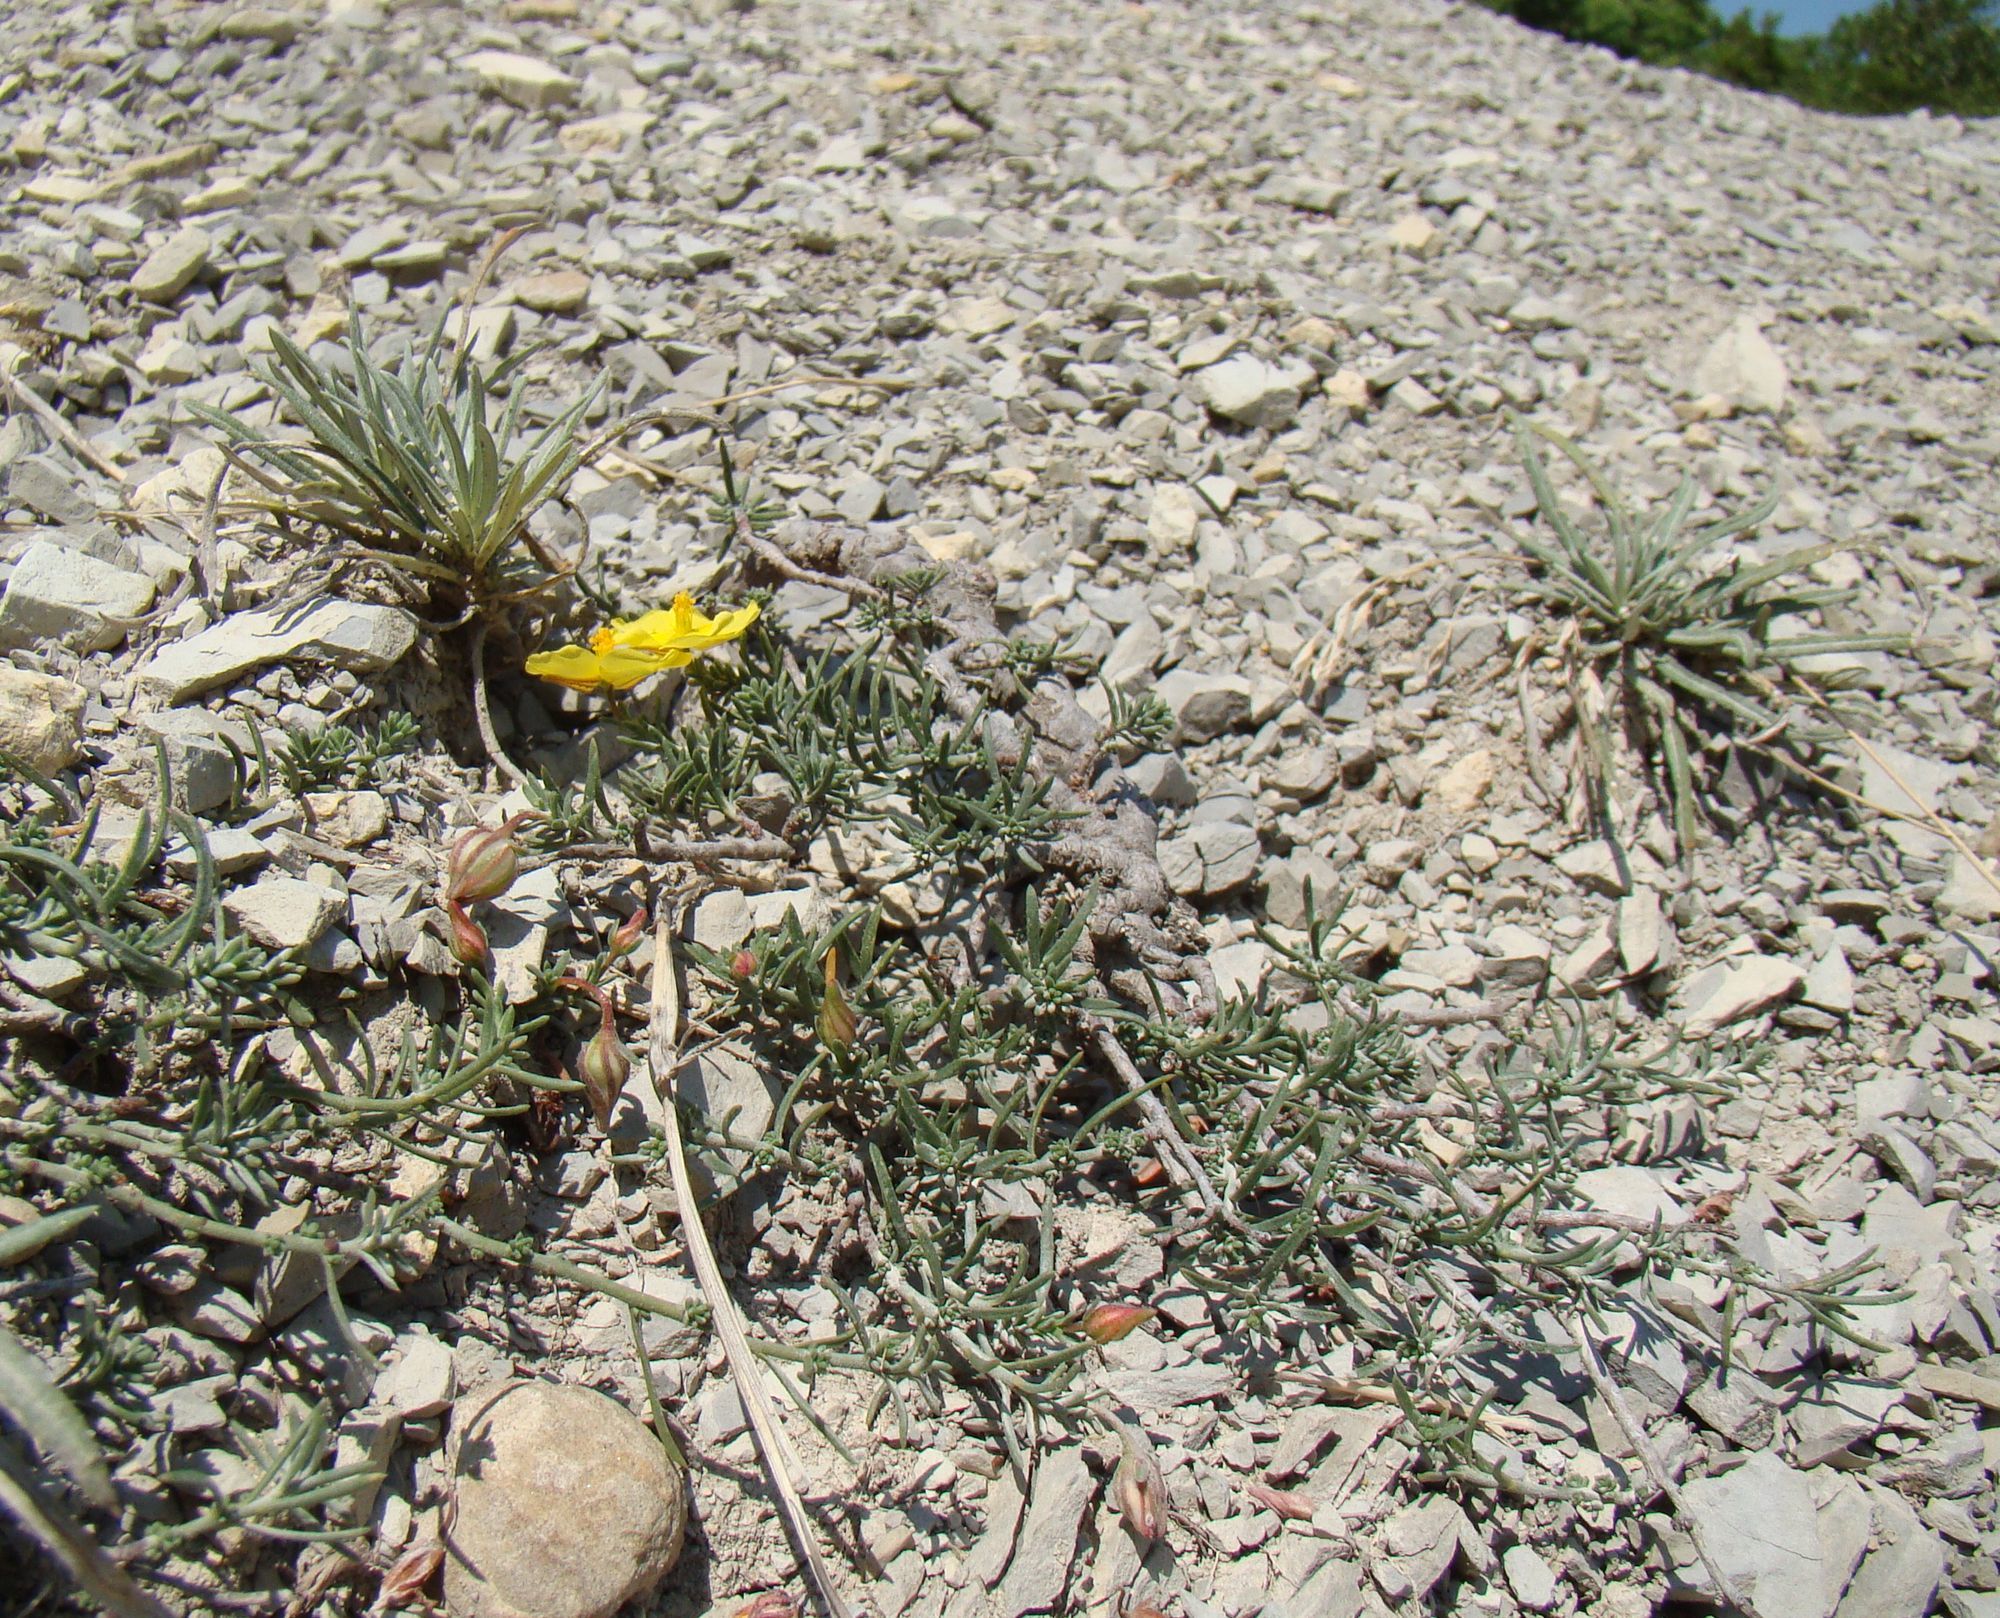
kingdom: Plantae
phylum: Tracheophyta
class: Magnoliopsida
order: Malvales
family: Cistaceae
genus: Fumana
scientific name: Fumana procumbens
